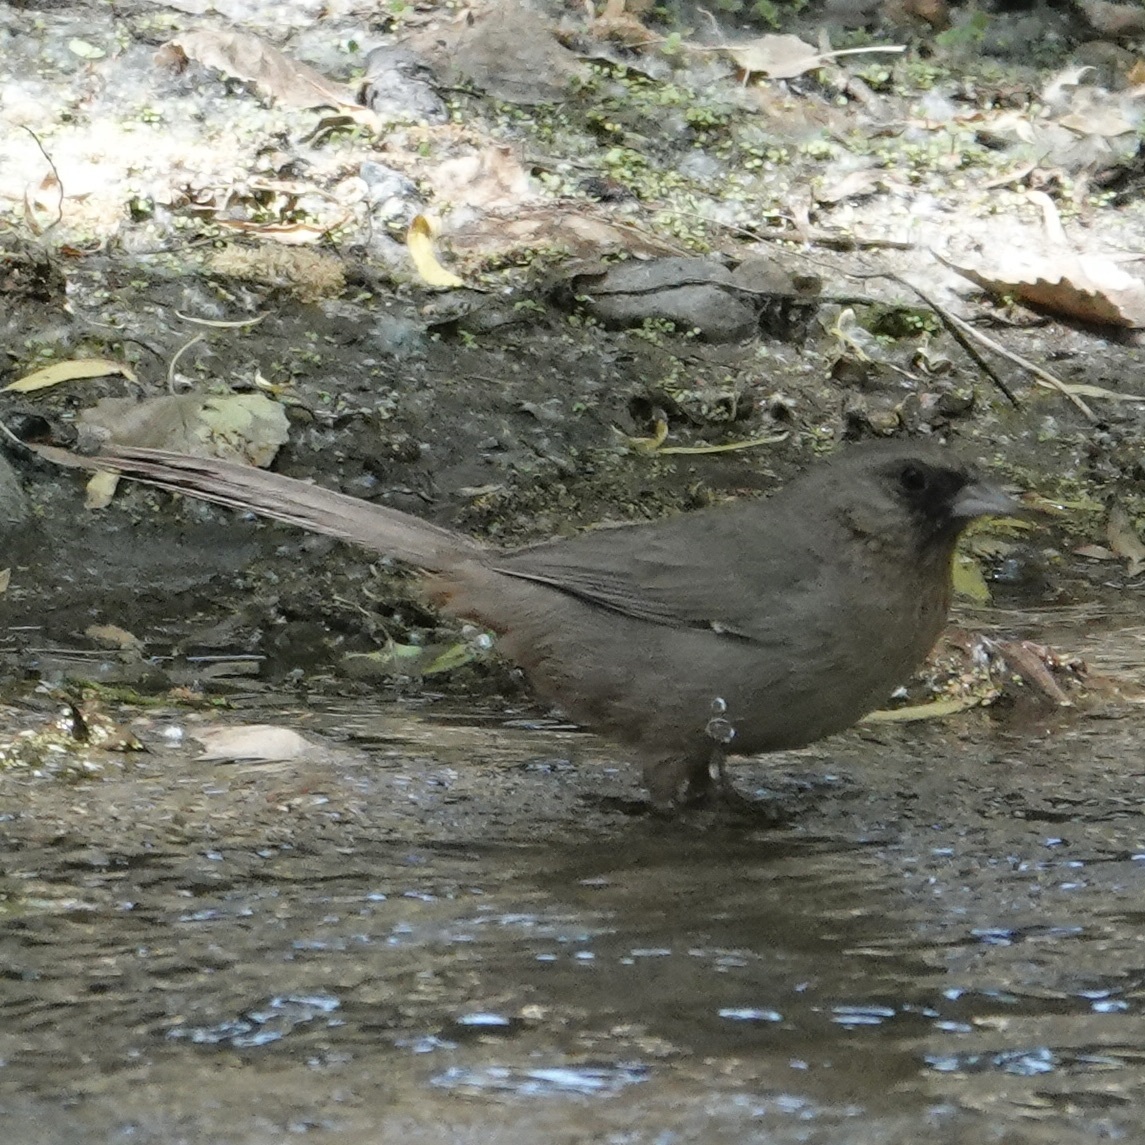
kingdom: Animalia
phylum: Chordata
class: Aves
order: Passeriformes
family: Passerellidae
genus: Melozone
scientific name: Melozone aberti
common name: Abert's towhee
